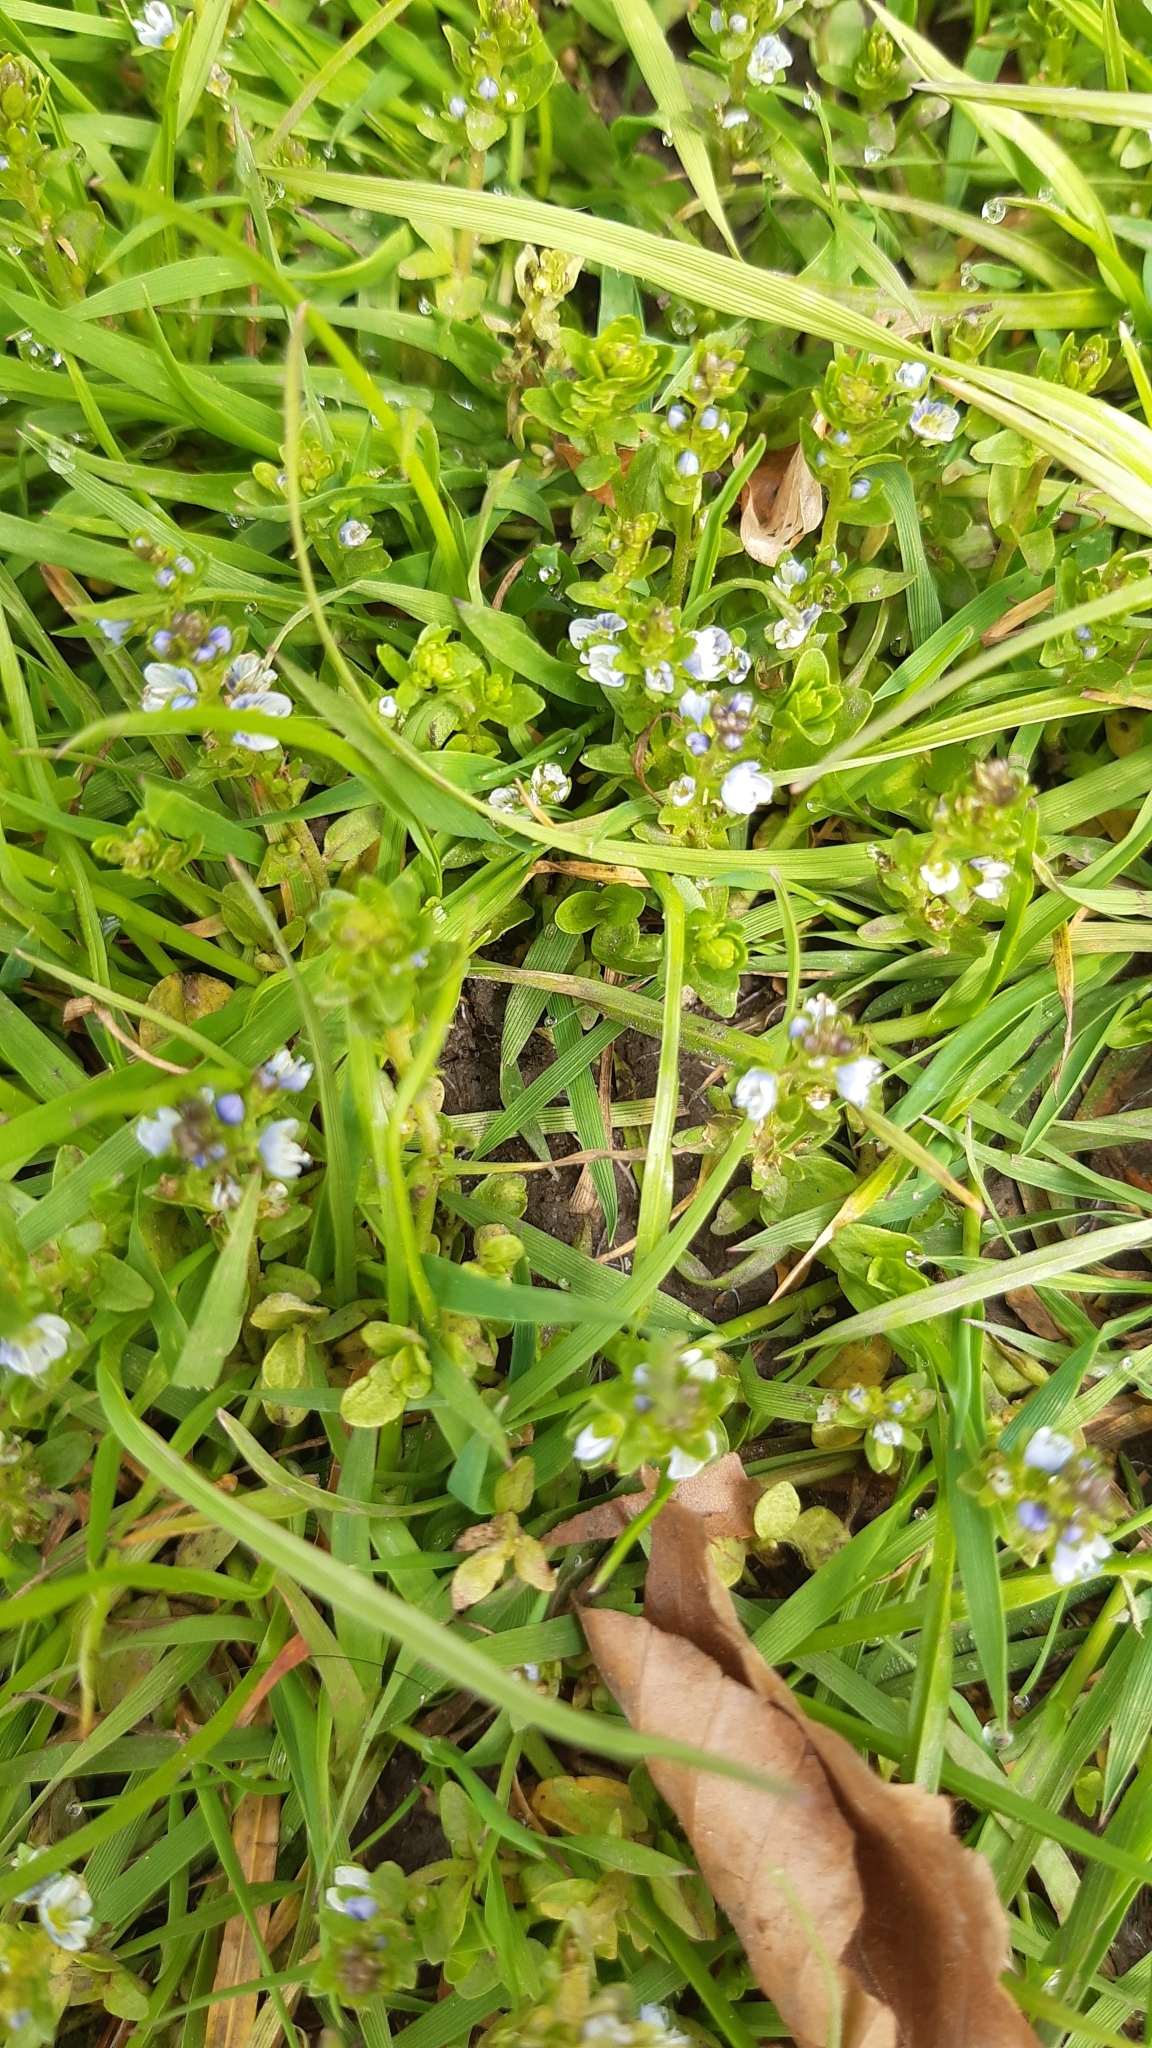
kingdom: Plantae
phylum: Tracheophyta
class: Magnoliopsida
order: Lamiales
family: Plantaginaceae
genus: Veronica
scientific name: Veronica serpyllifolia
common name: Thyme-leaved speedwell
